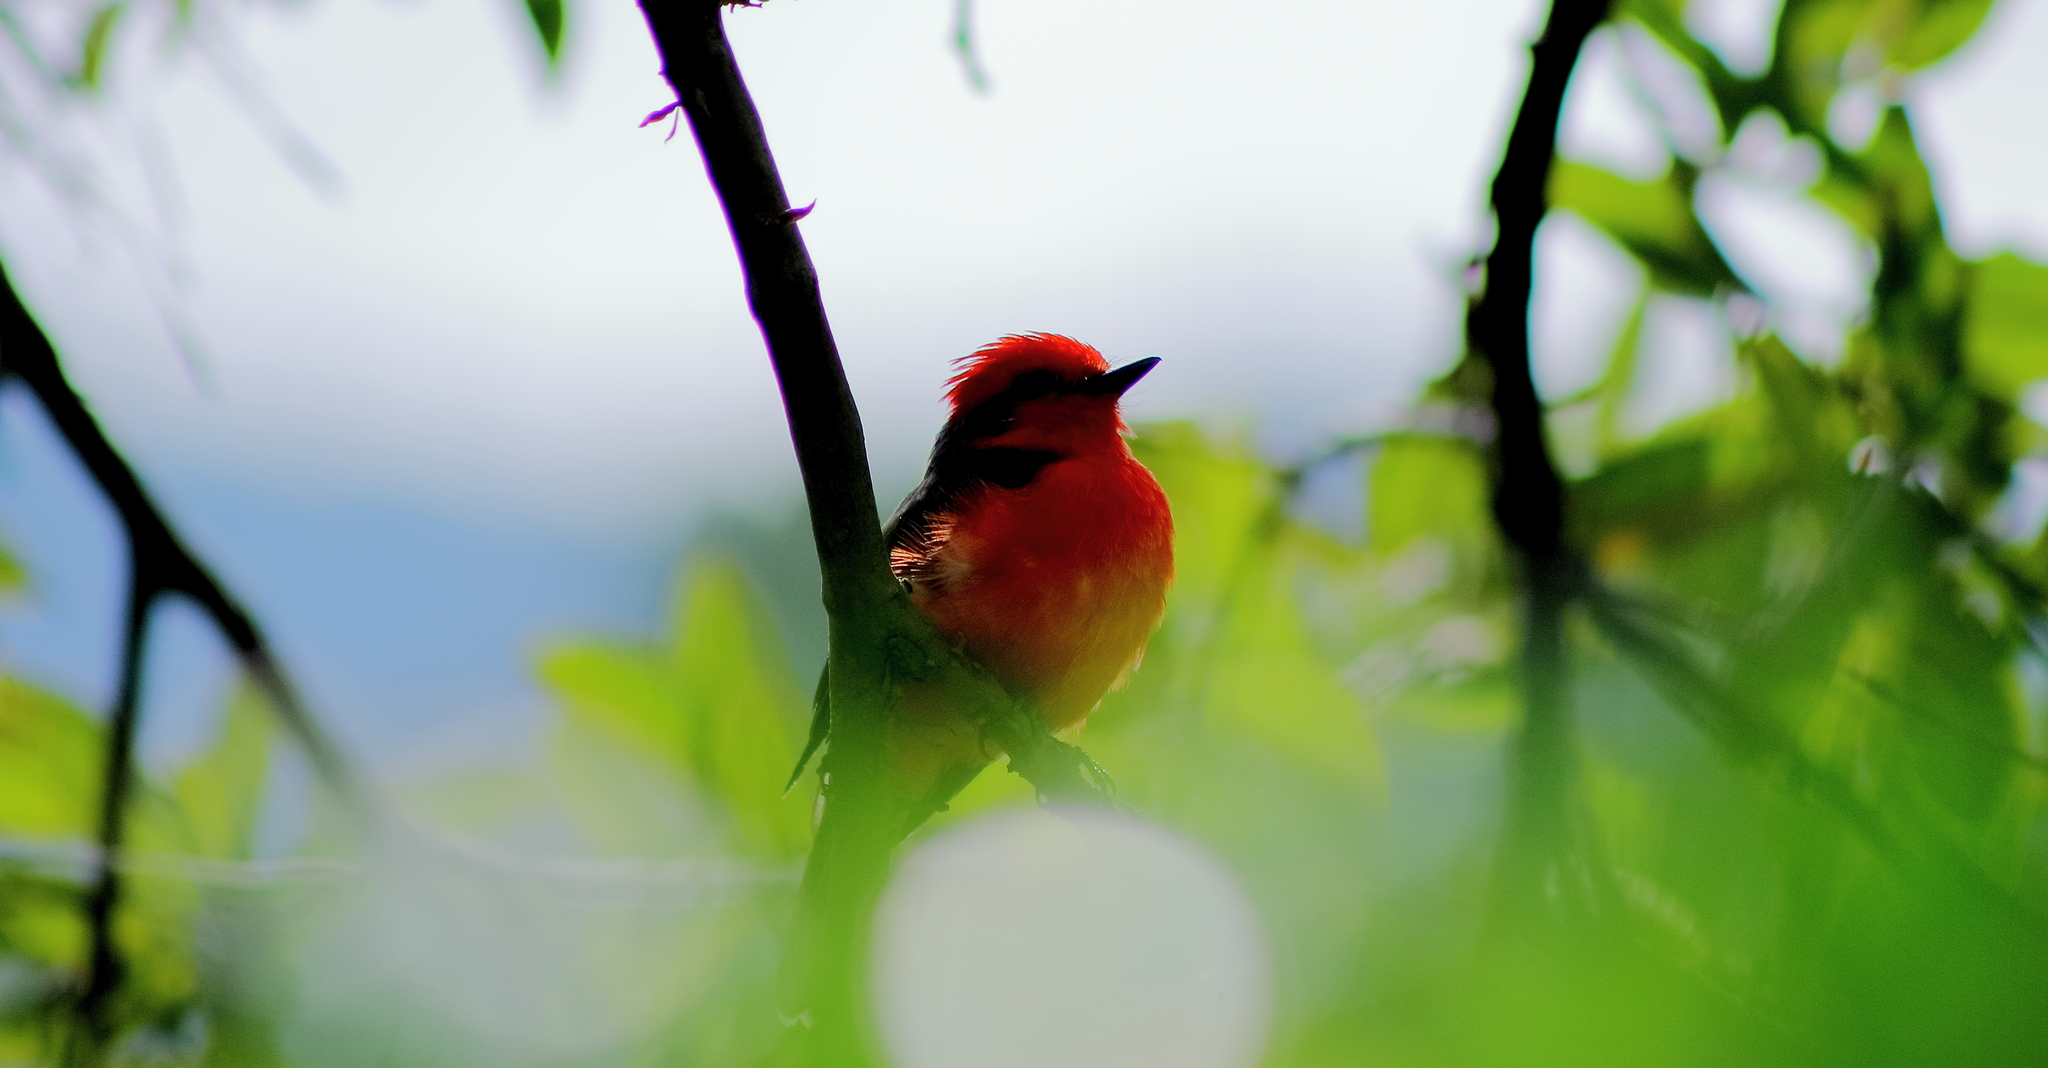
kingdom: Animalia
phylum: Chordata
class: Aves
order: Passeriformes
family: Tyrannidae
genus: Pyrocephalus
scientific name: Pyrocephalus rubinus
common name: Vermilion flycatcher
